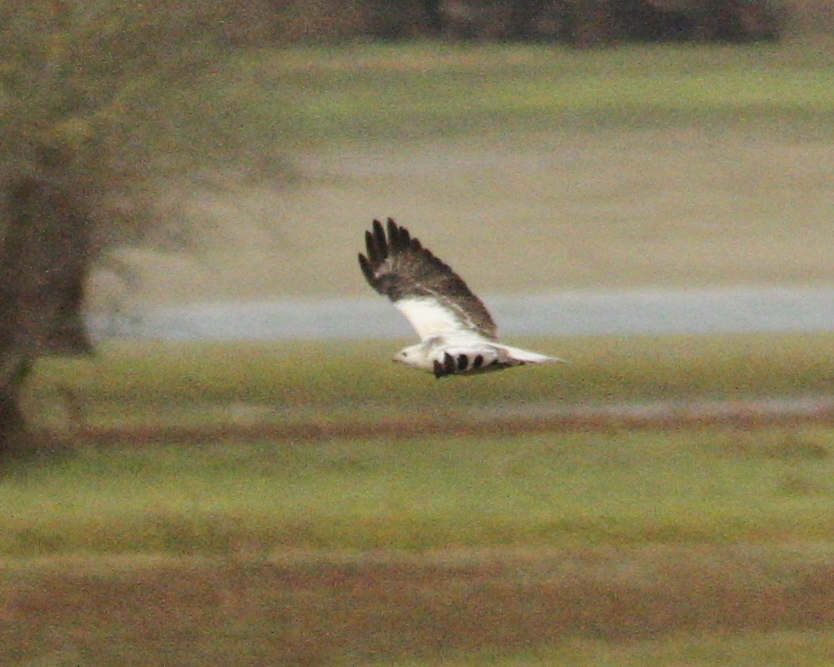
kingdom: Animalia
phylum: Chordata
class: Aves
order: Accipitriformes
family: Accipitridae
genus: Buteo
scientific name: Buteo buteo
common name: Common buzzard
